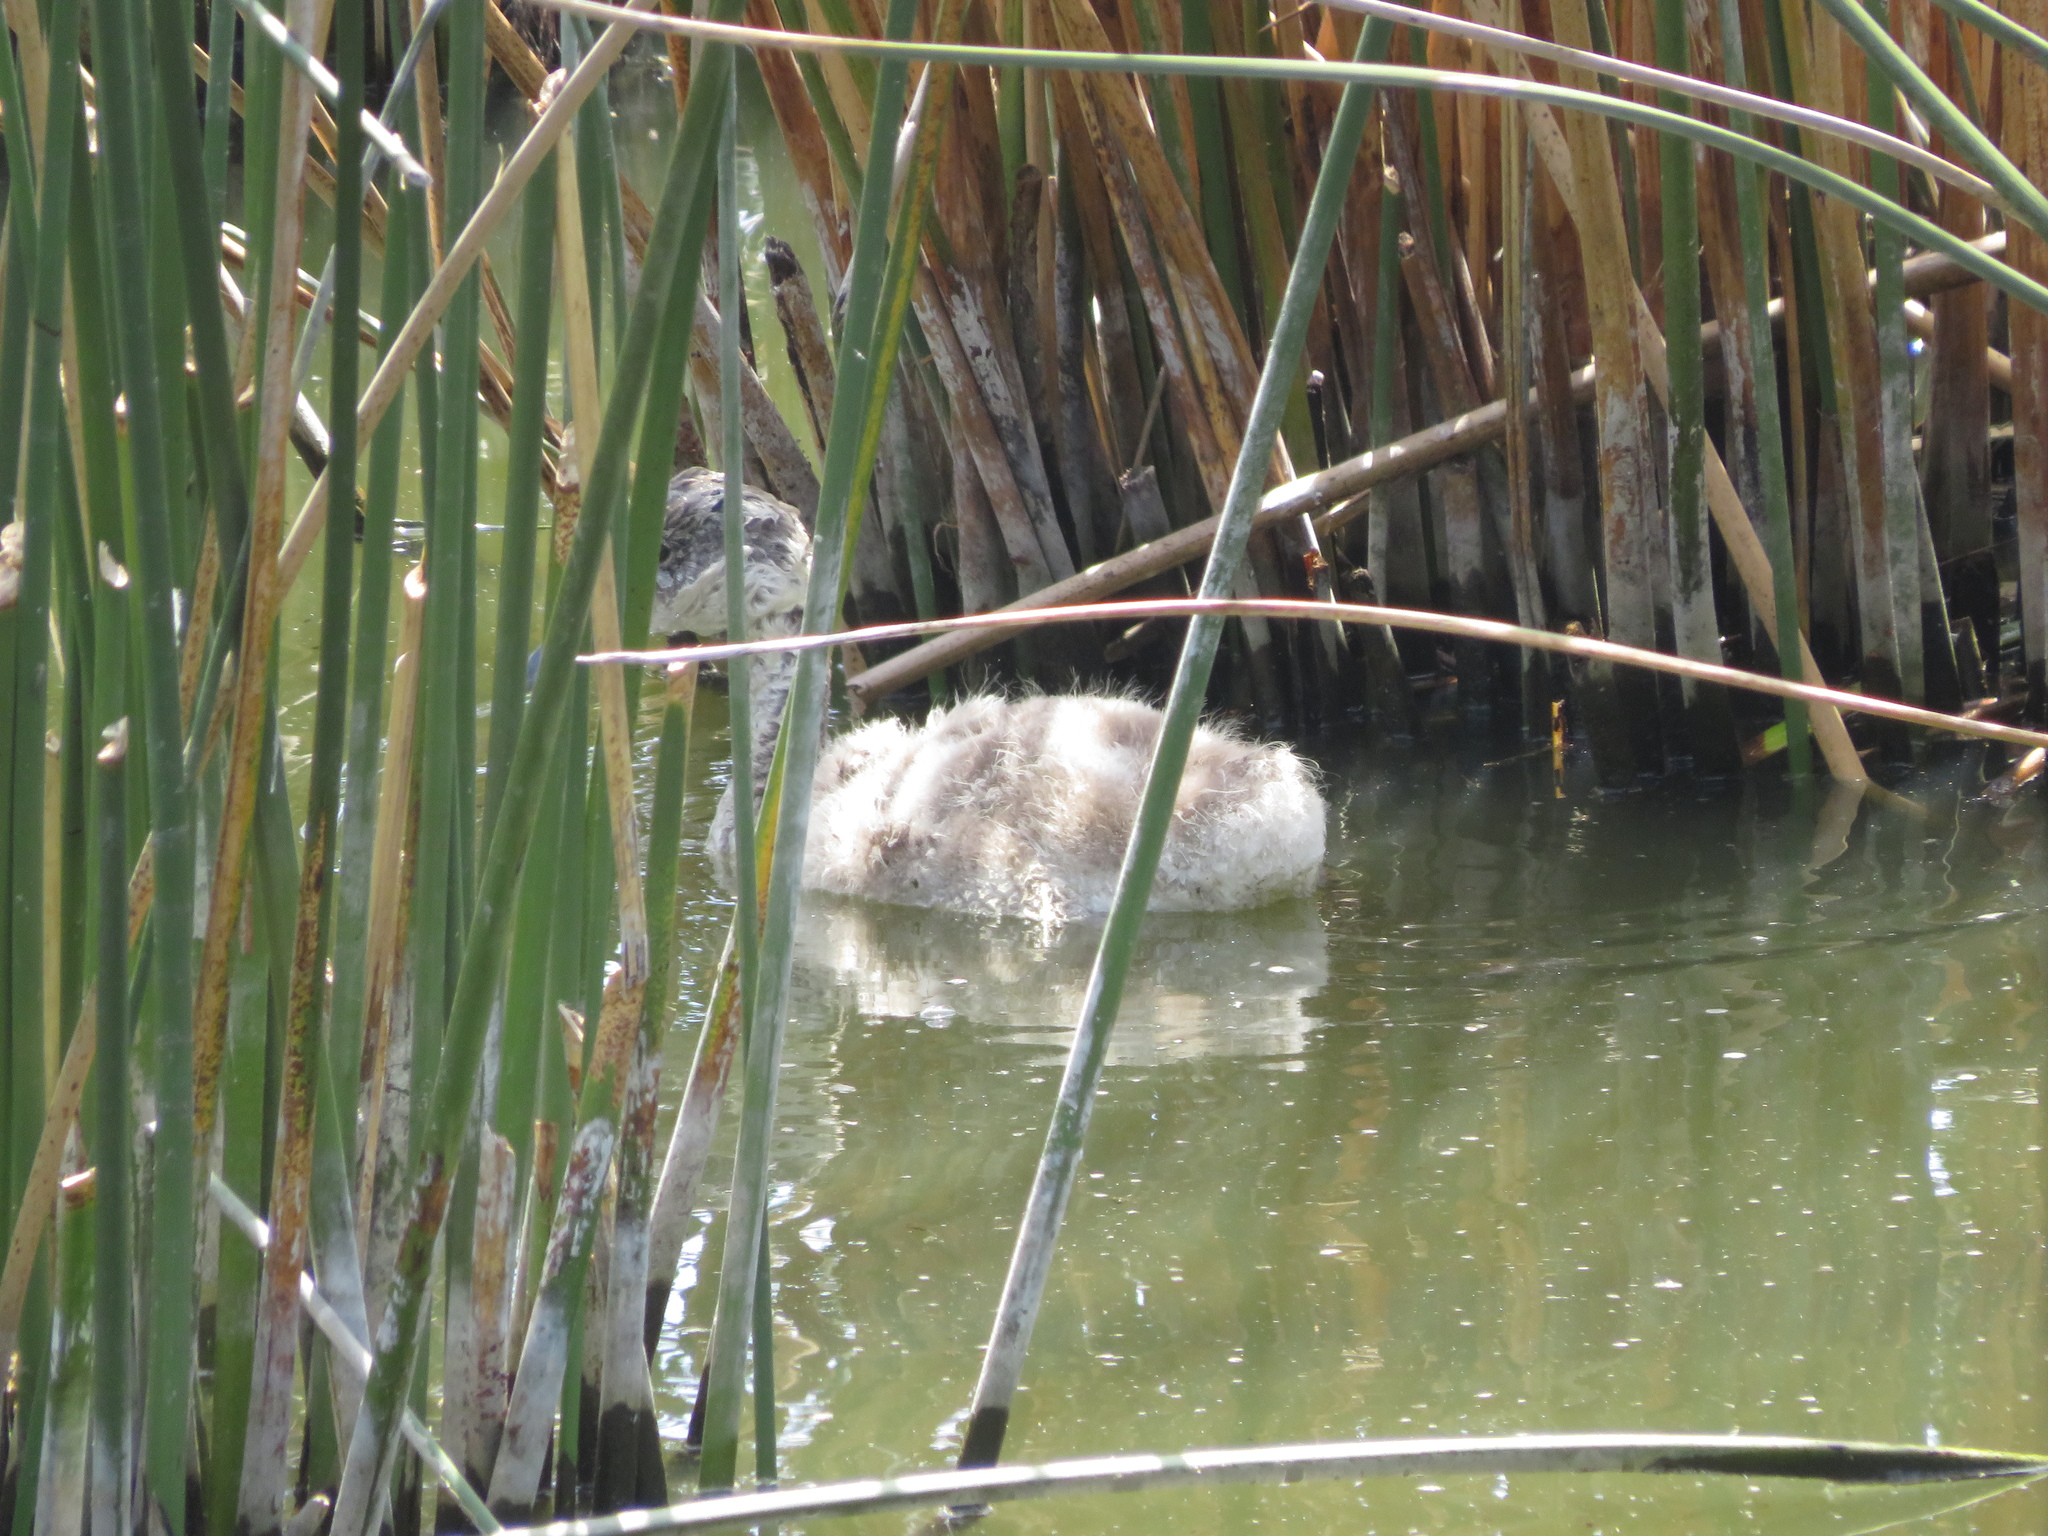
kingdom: Animalia
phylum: Chordata
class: Aves
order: Anseriformes
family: Anatidae
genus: Coscoroba
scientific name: Coscoroba coscoroba
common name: Coscoroba swan
